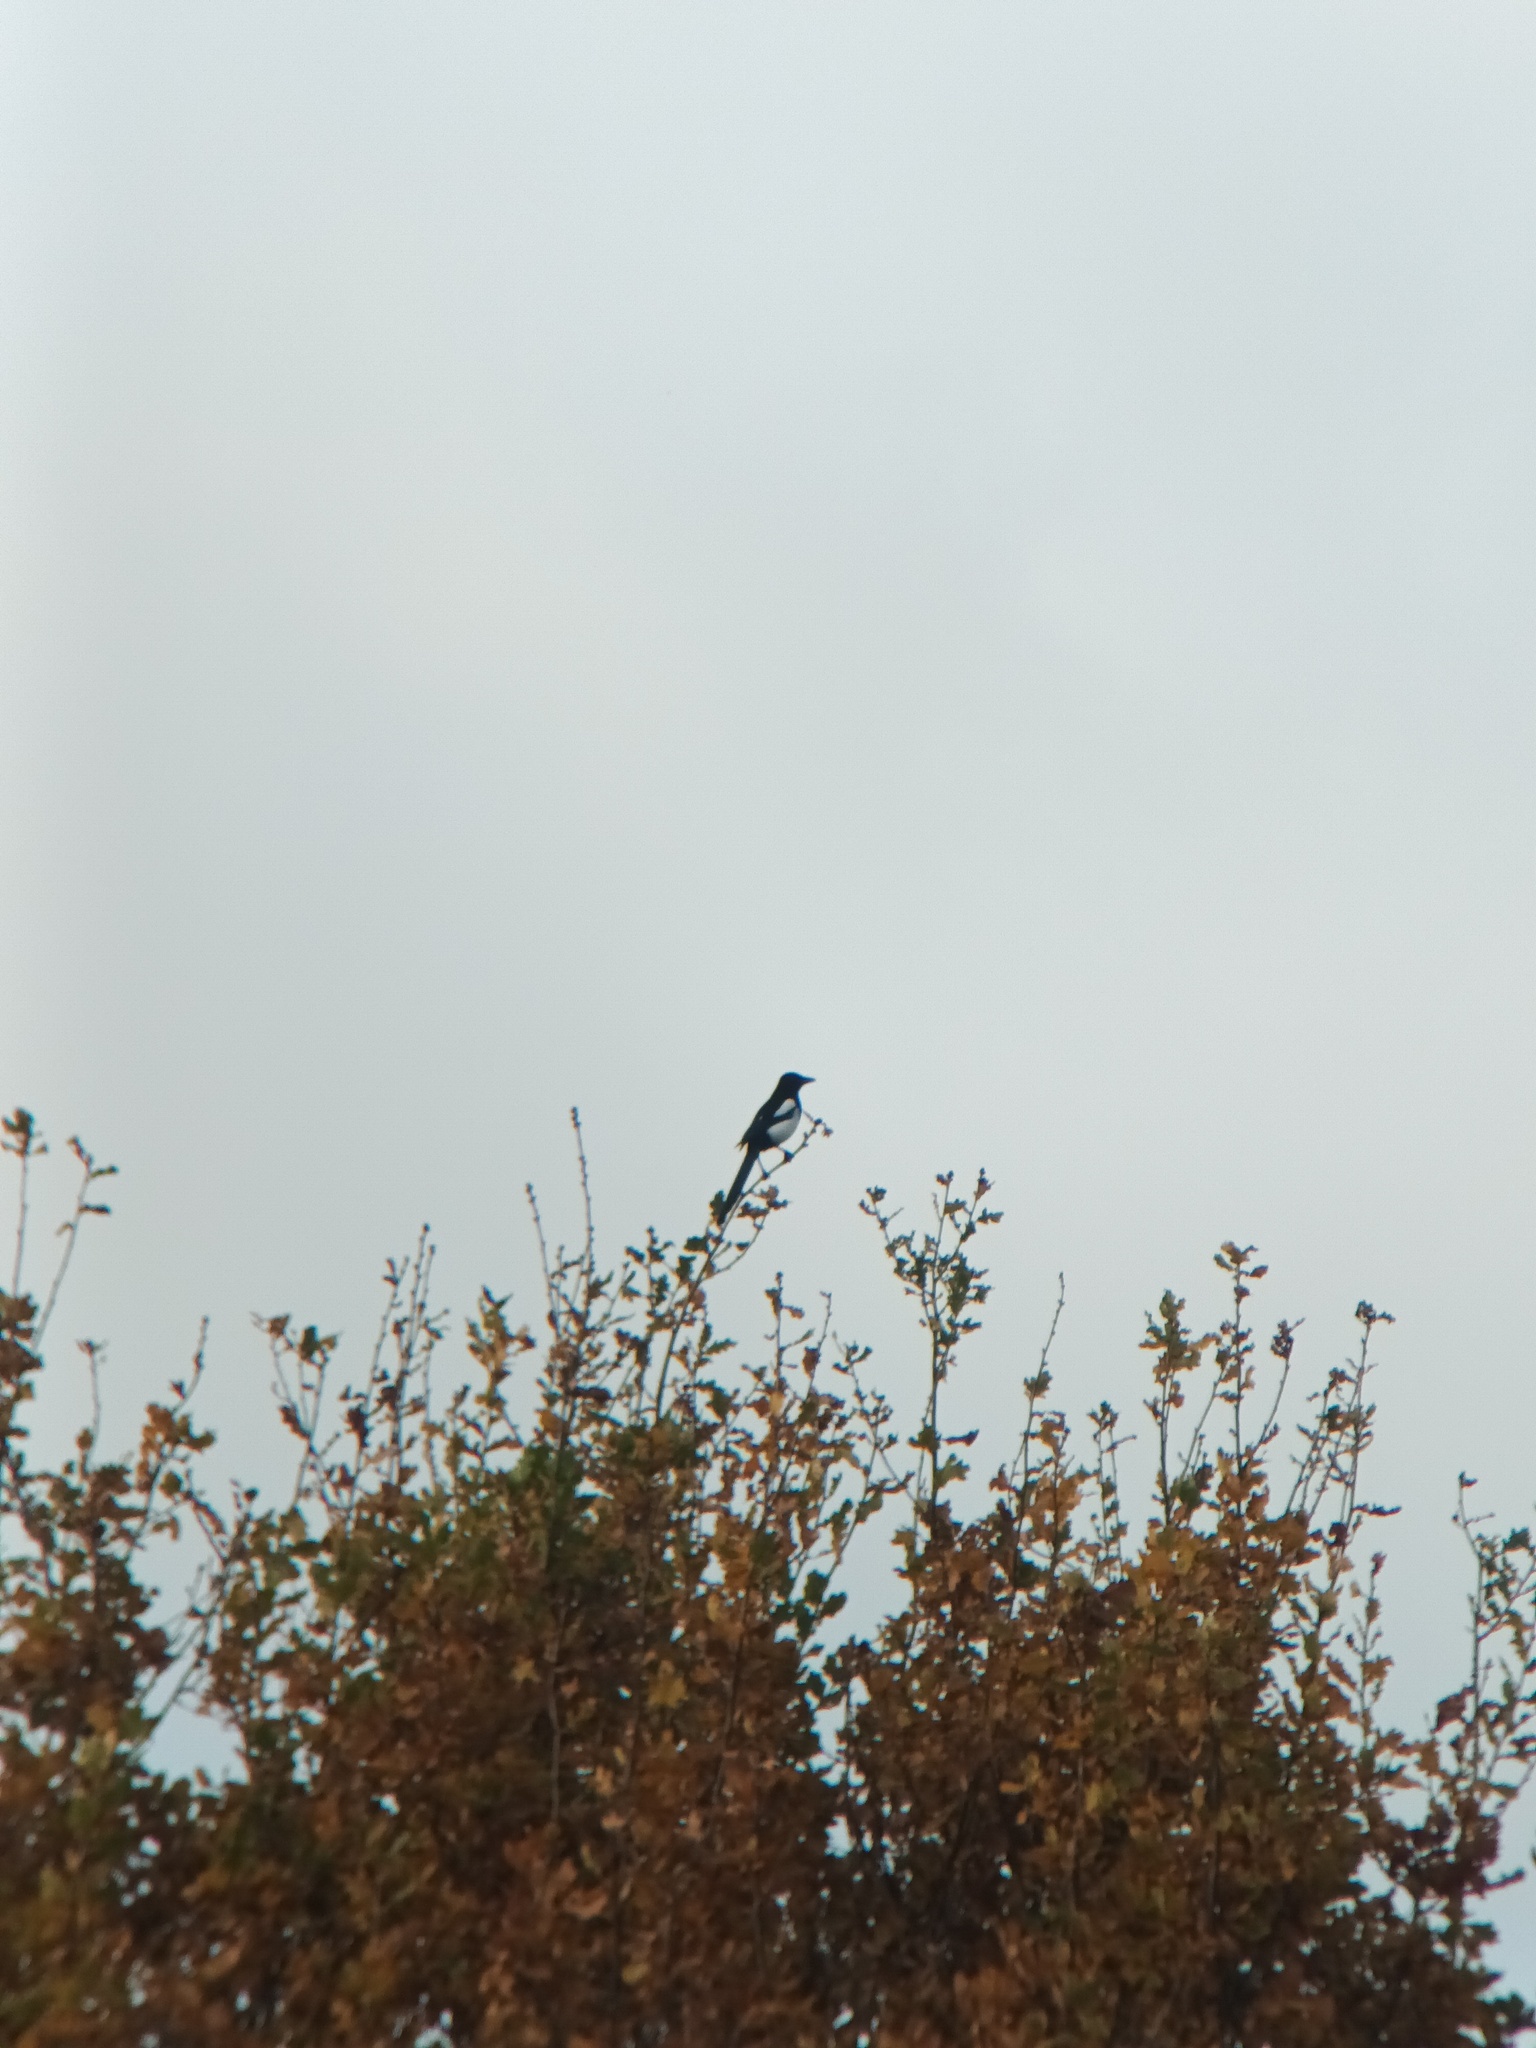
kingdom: Animalia
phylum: Chordata
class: Aves
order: Passeriformes
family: Corvidae
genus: Pica
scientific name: Pica pica
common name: Eurasian magpie
